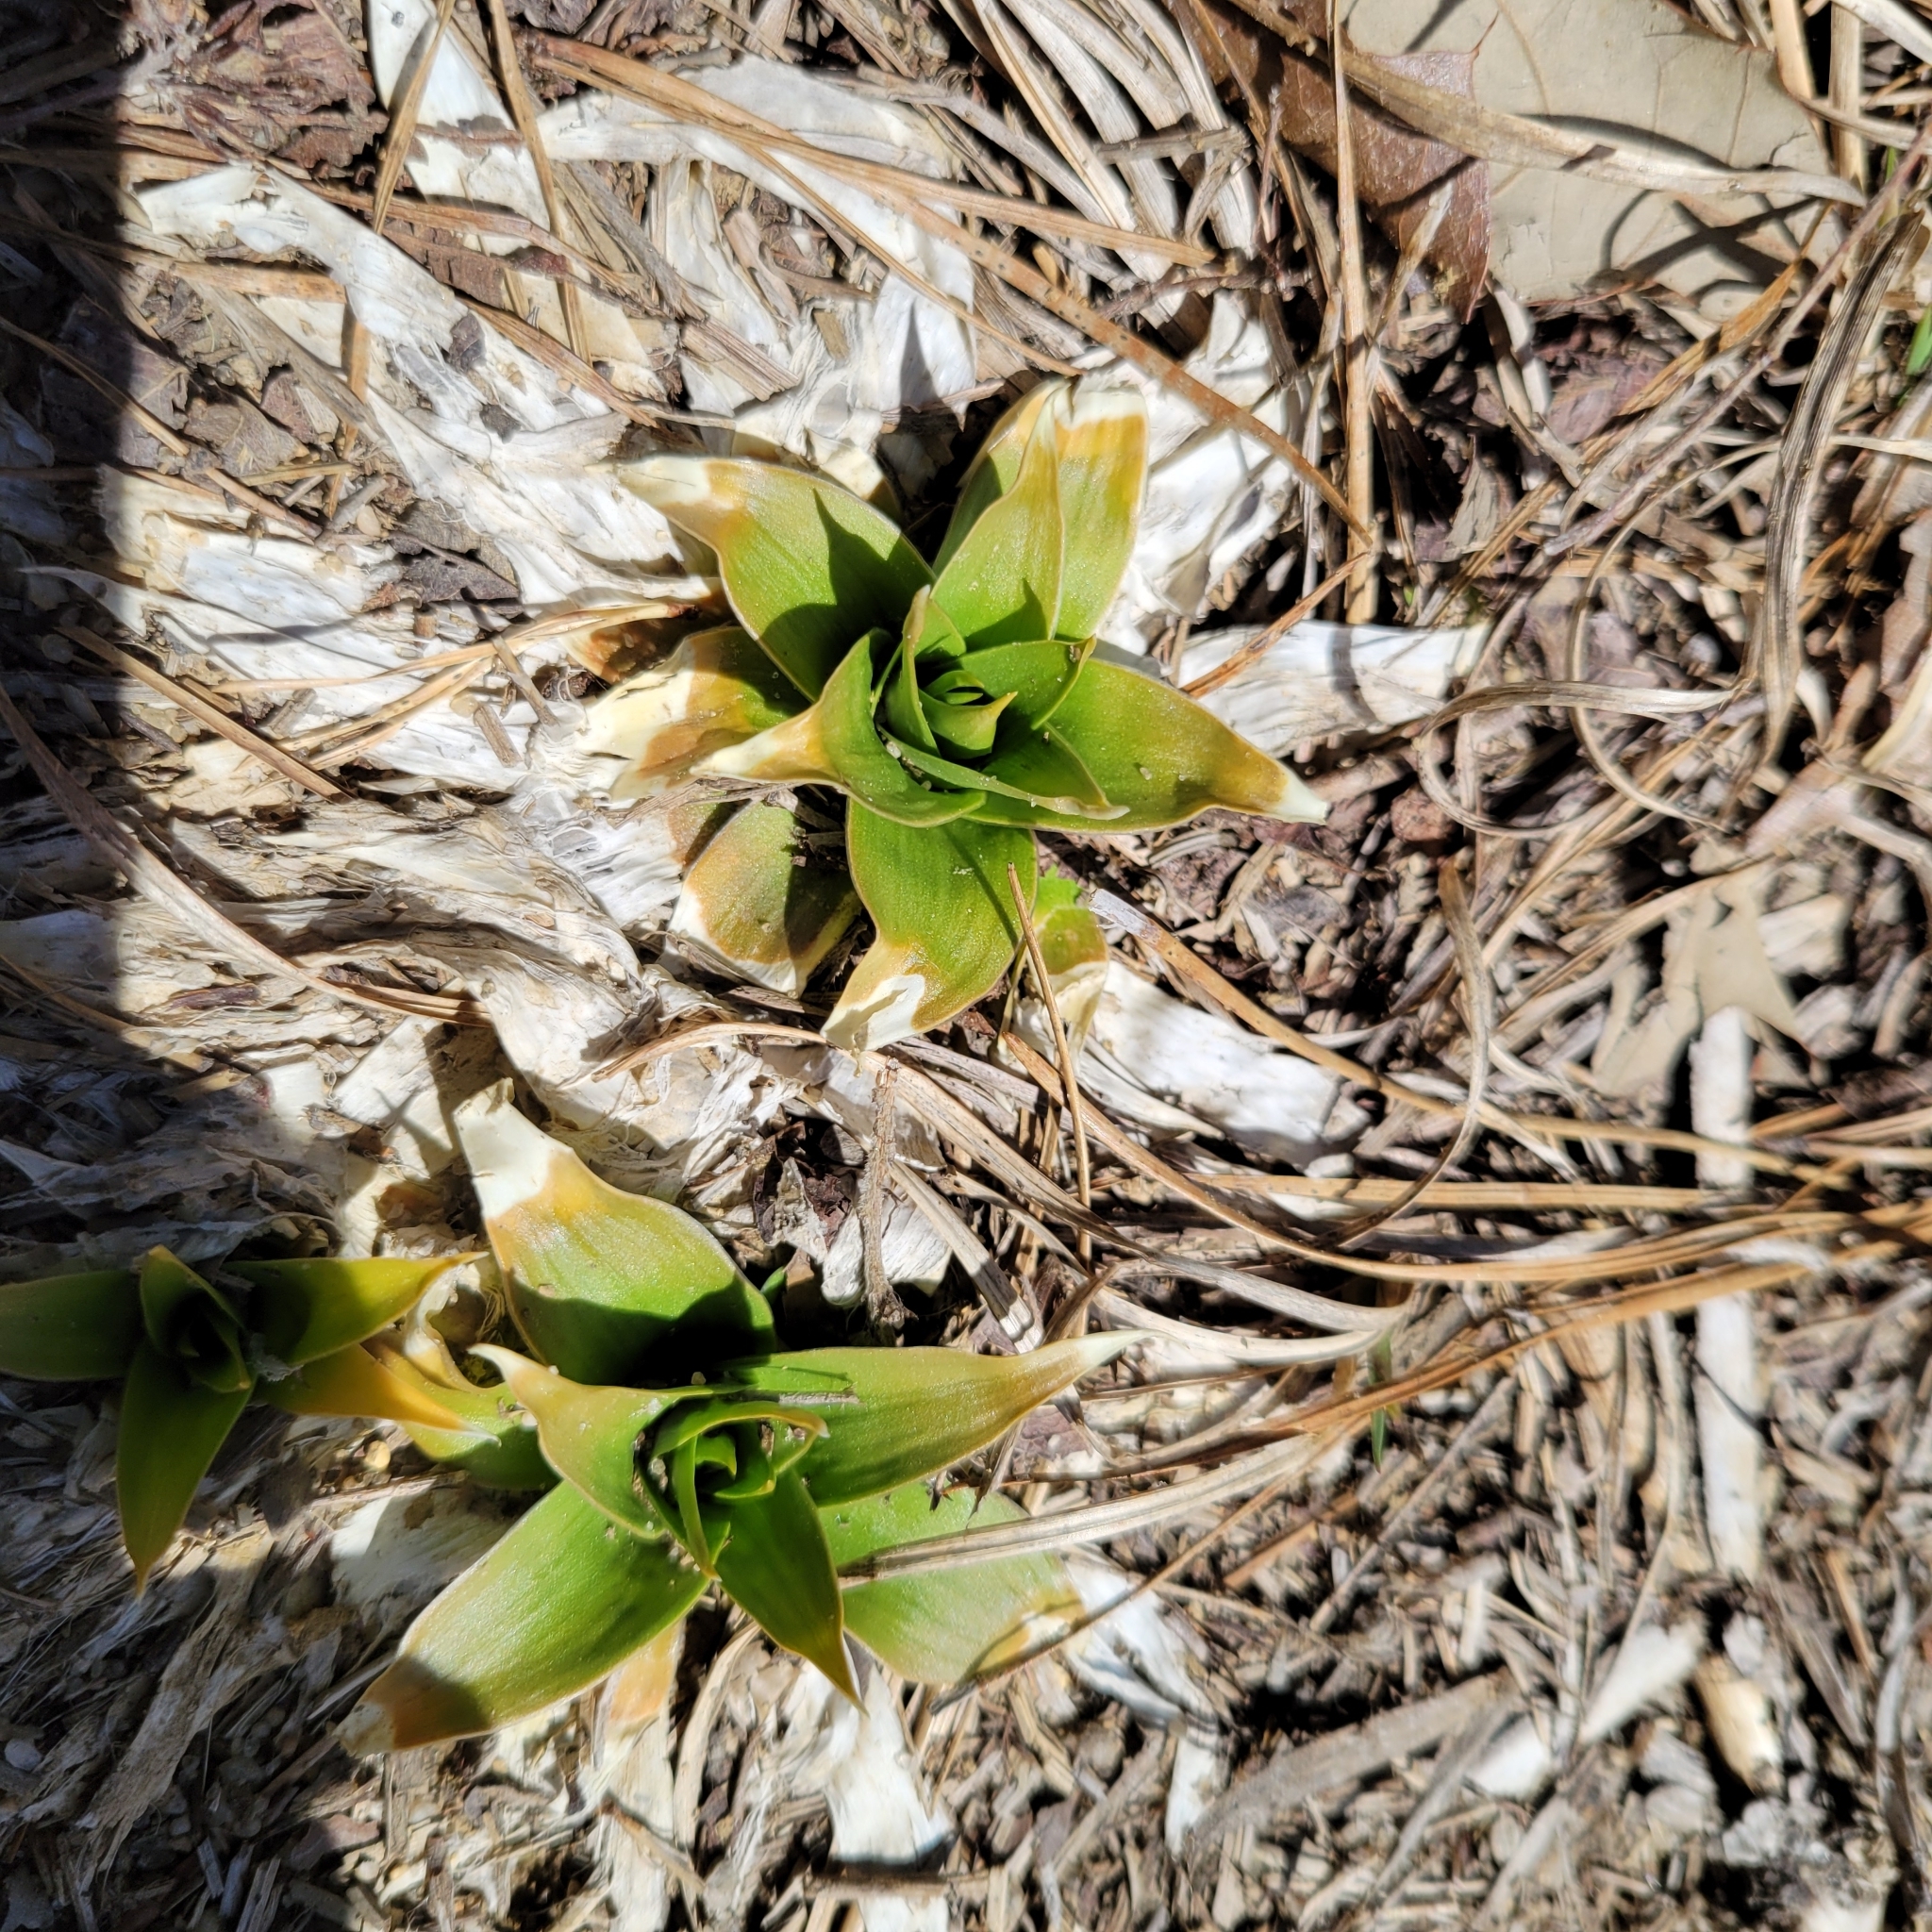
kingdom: Plantae
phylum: Tracheophyta
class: Liliopsida
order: Dioscoreales
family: Nartheciaceae
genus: Aletris
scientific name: Aletris farinosa
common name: Colicroot
